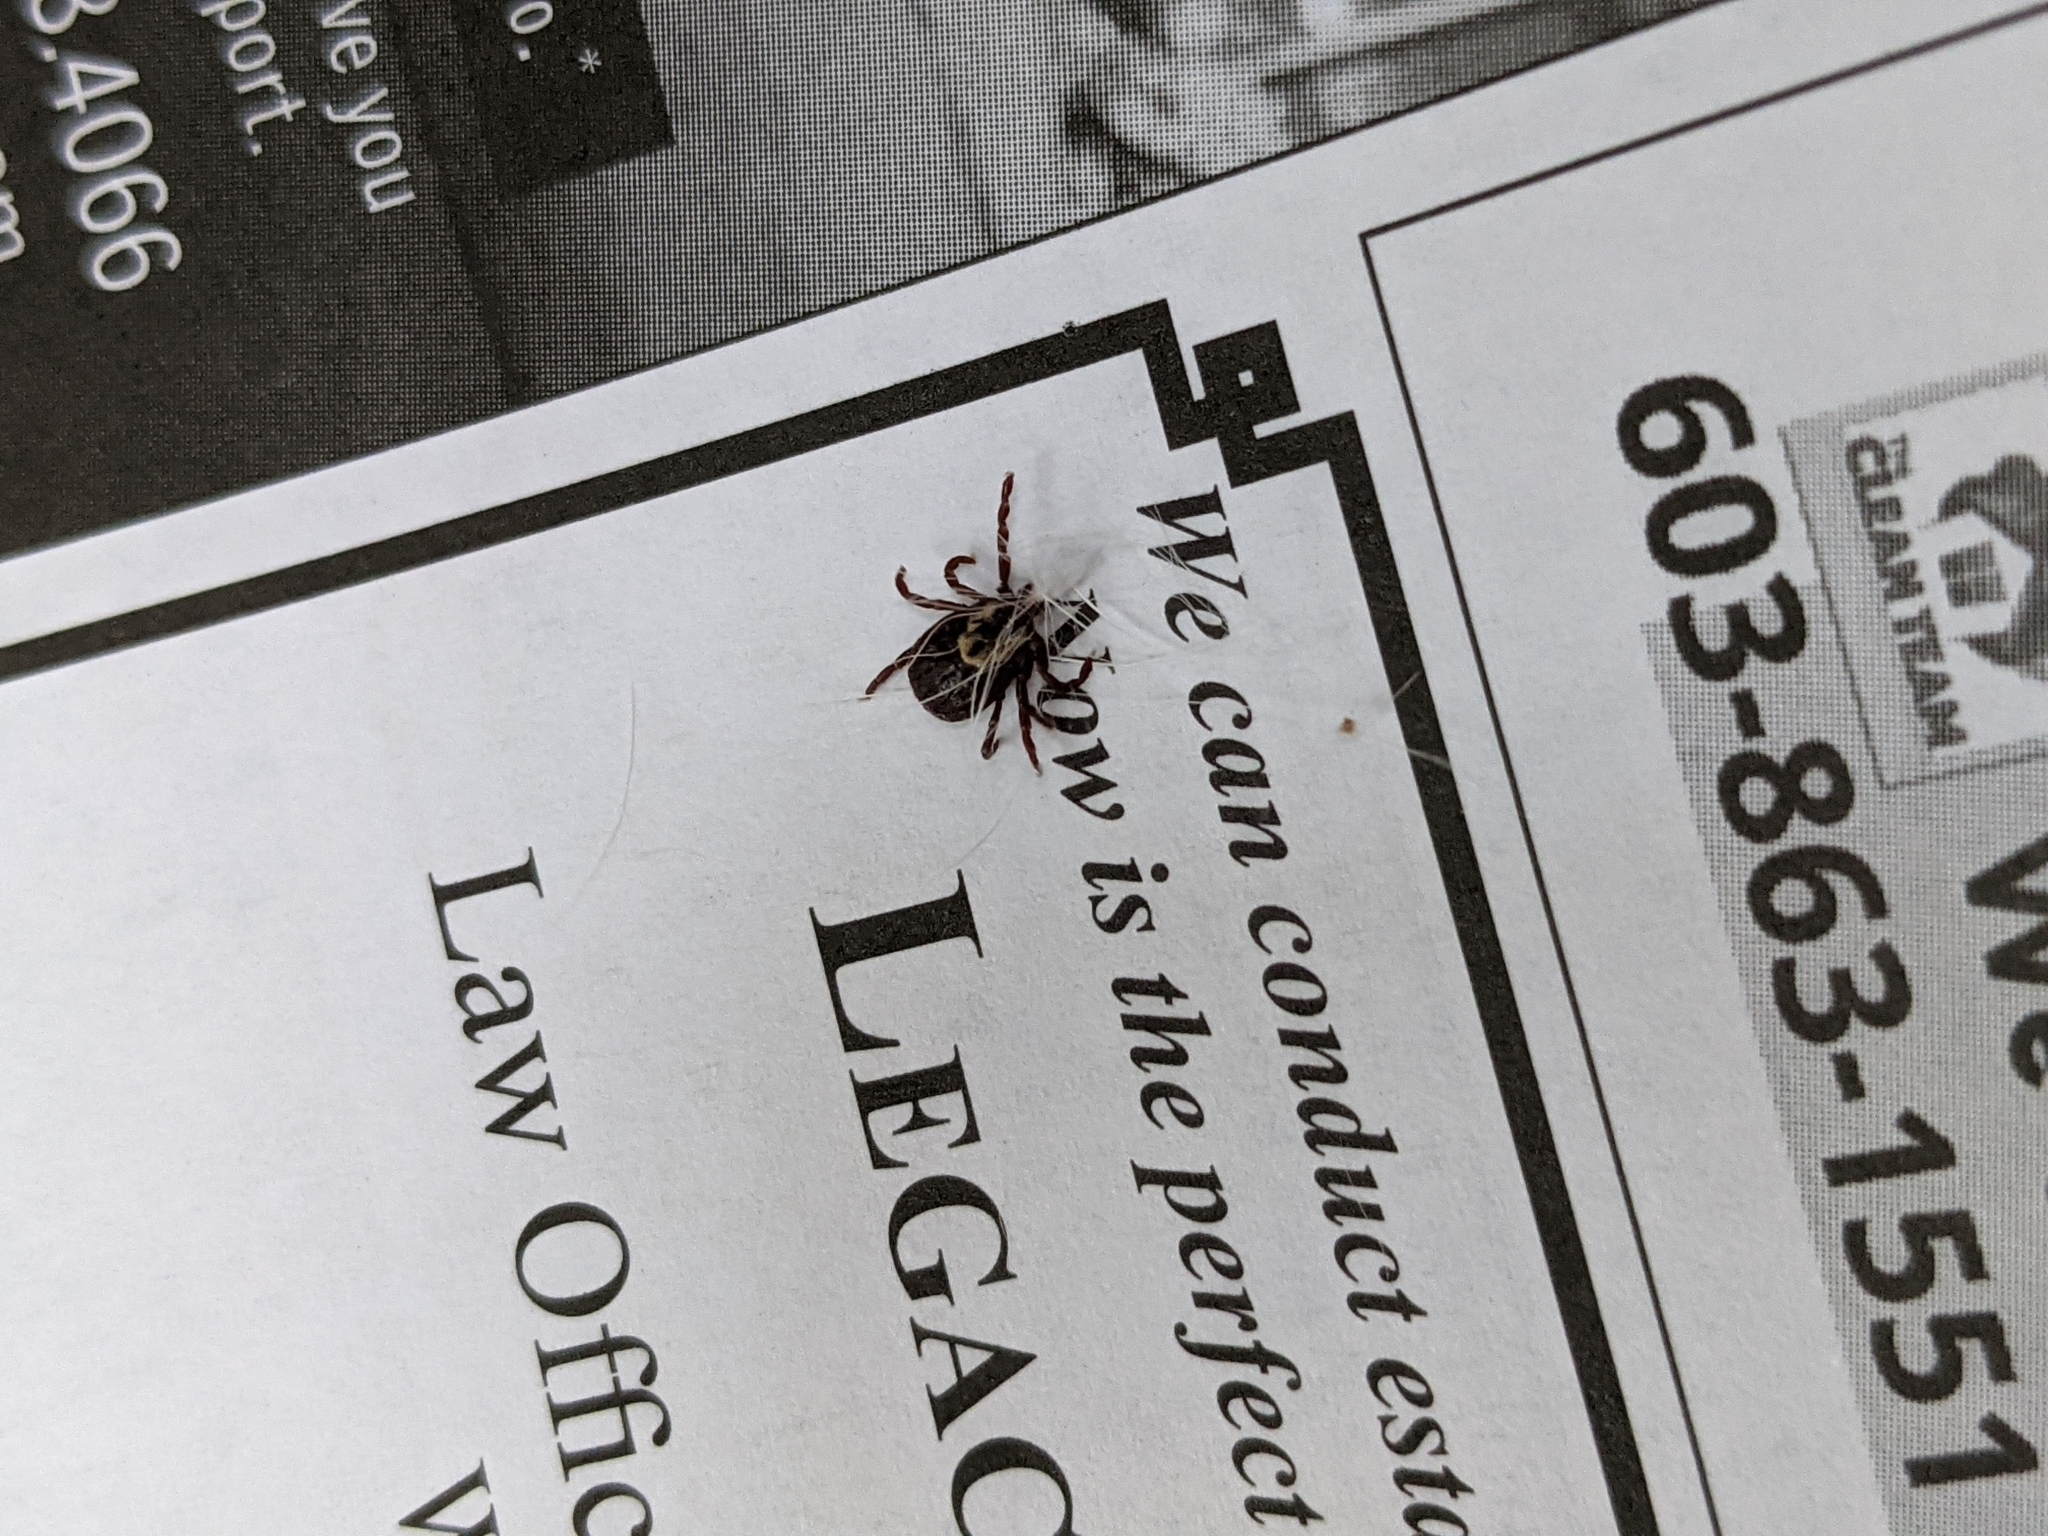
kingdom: Animalia
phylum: Arthropoda
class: Arachnida
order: Ixodida
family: Ixodidae
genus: Dermacentor
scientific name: Dermacentor variabilis
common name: American dog tick
